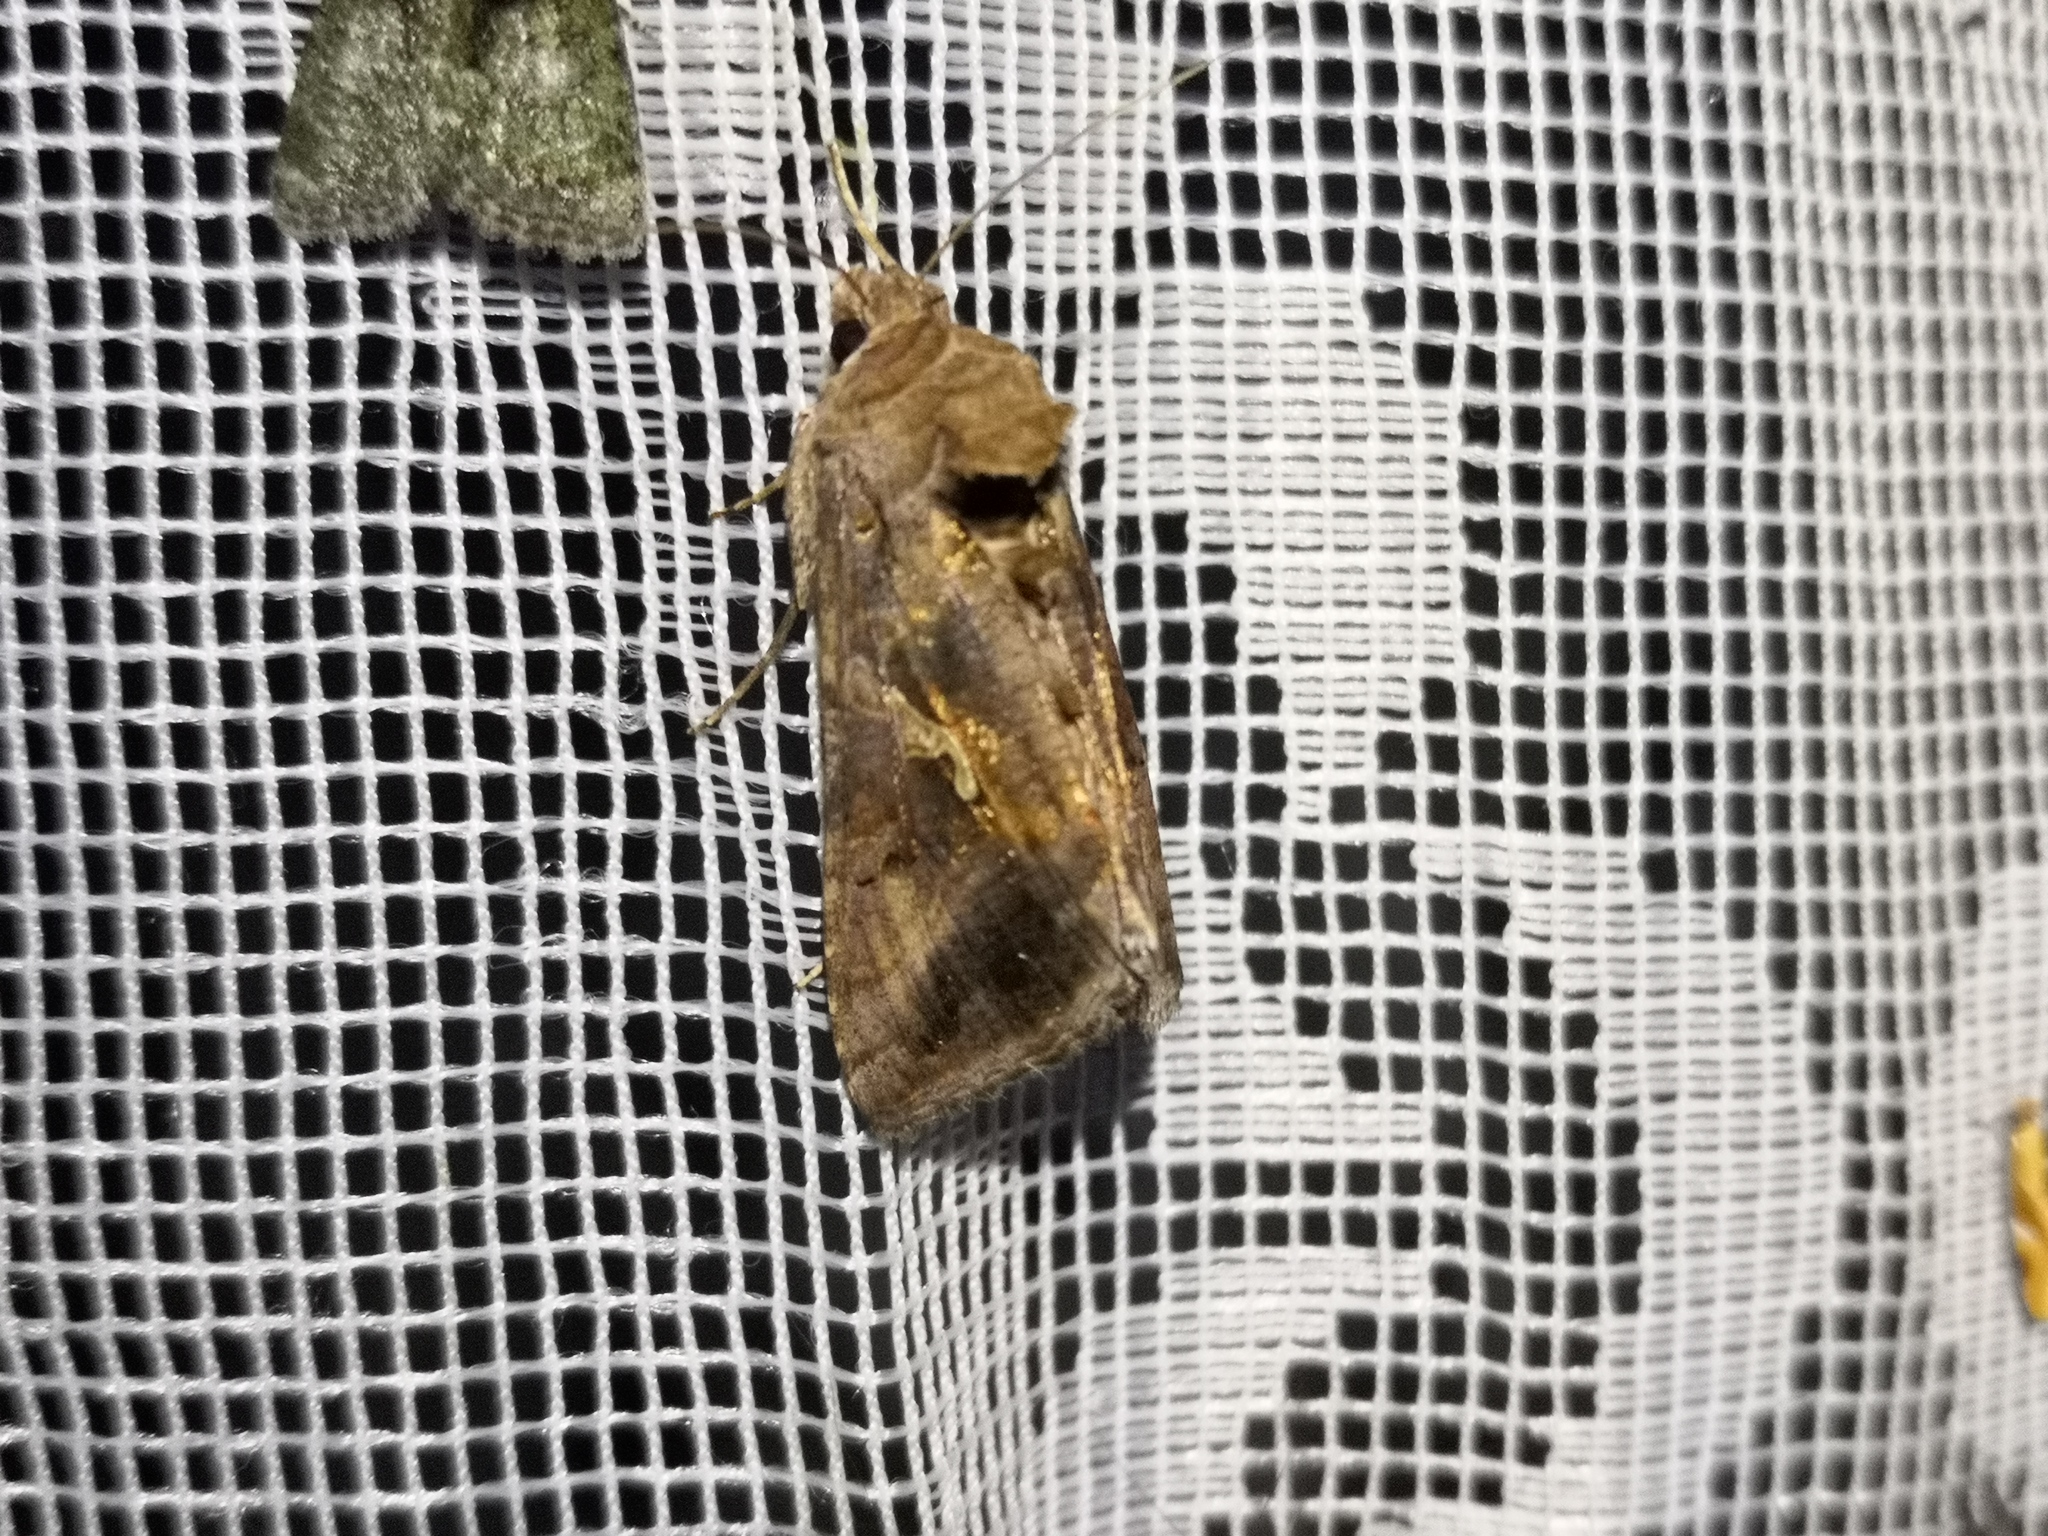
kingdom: Animalia
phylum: Arthropoda
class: Insecta
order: Lepidoptera
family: Noctuidae
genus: Autographa
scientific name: Autographa gamma
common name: Silver y
